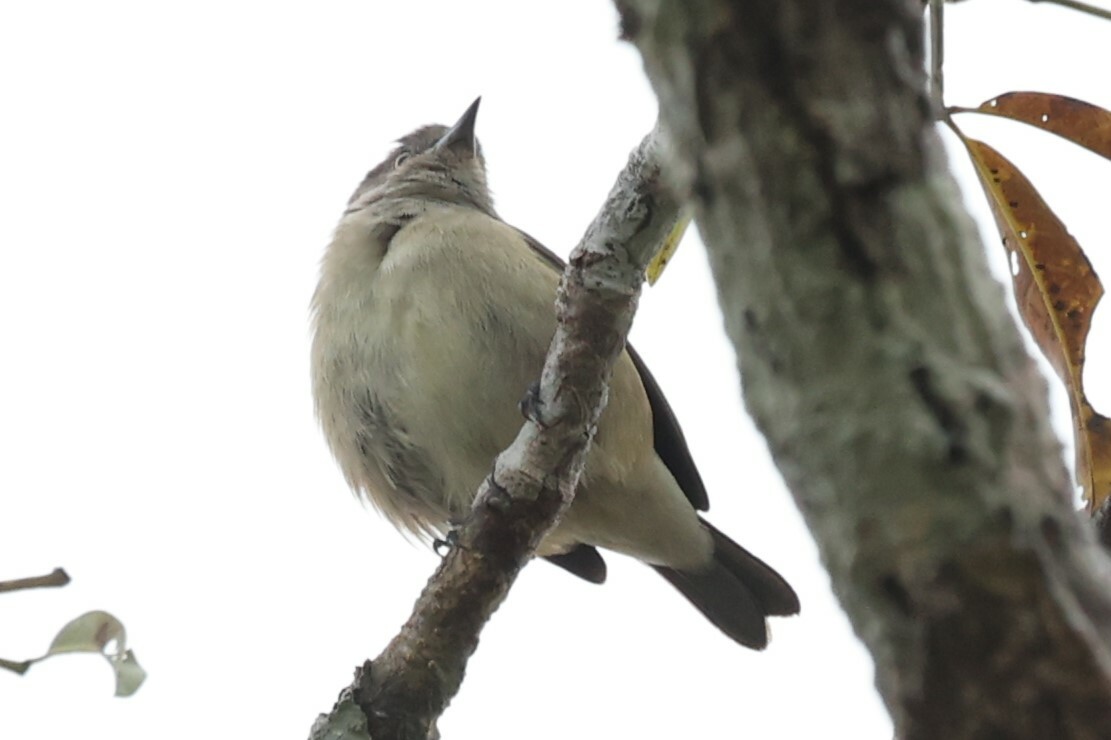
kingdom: Animalia
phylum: Chordata
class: Aves
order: Passeriformes
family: Thraupidae
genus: Dacnis
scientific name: Dacnis lineata
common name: Black-faced dacnis
